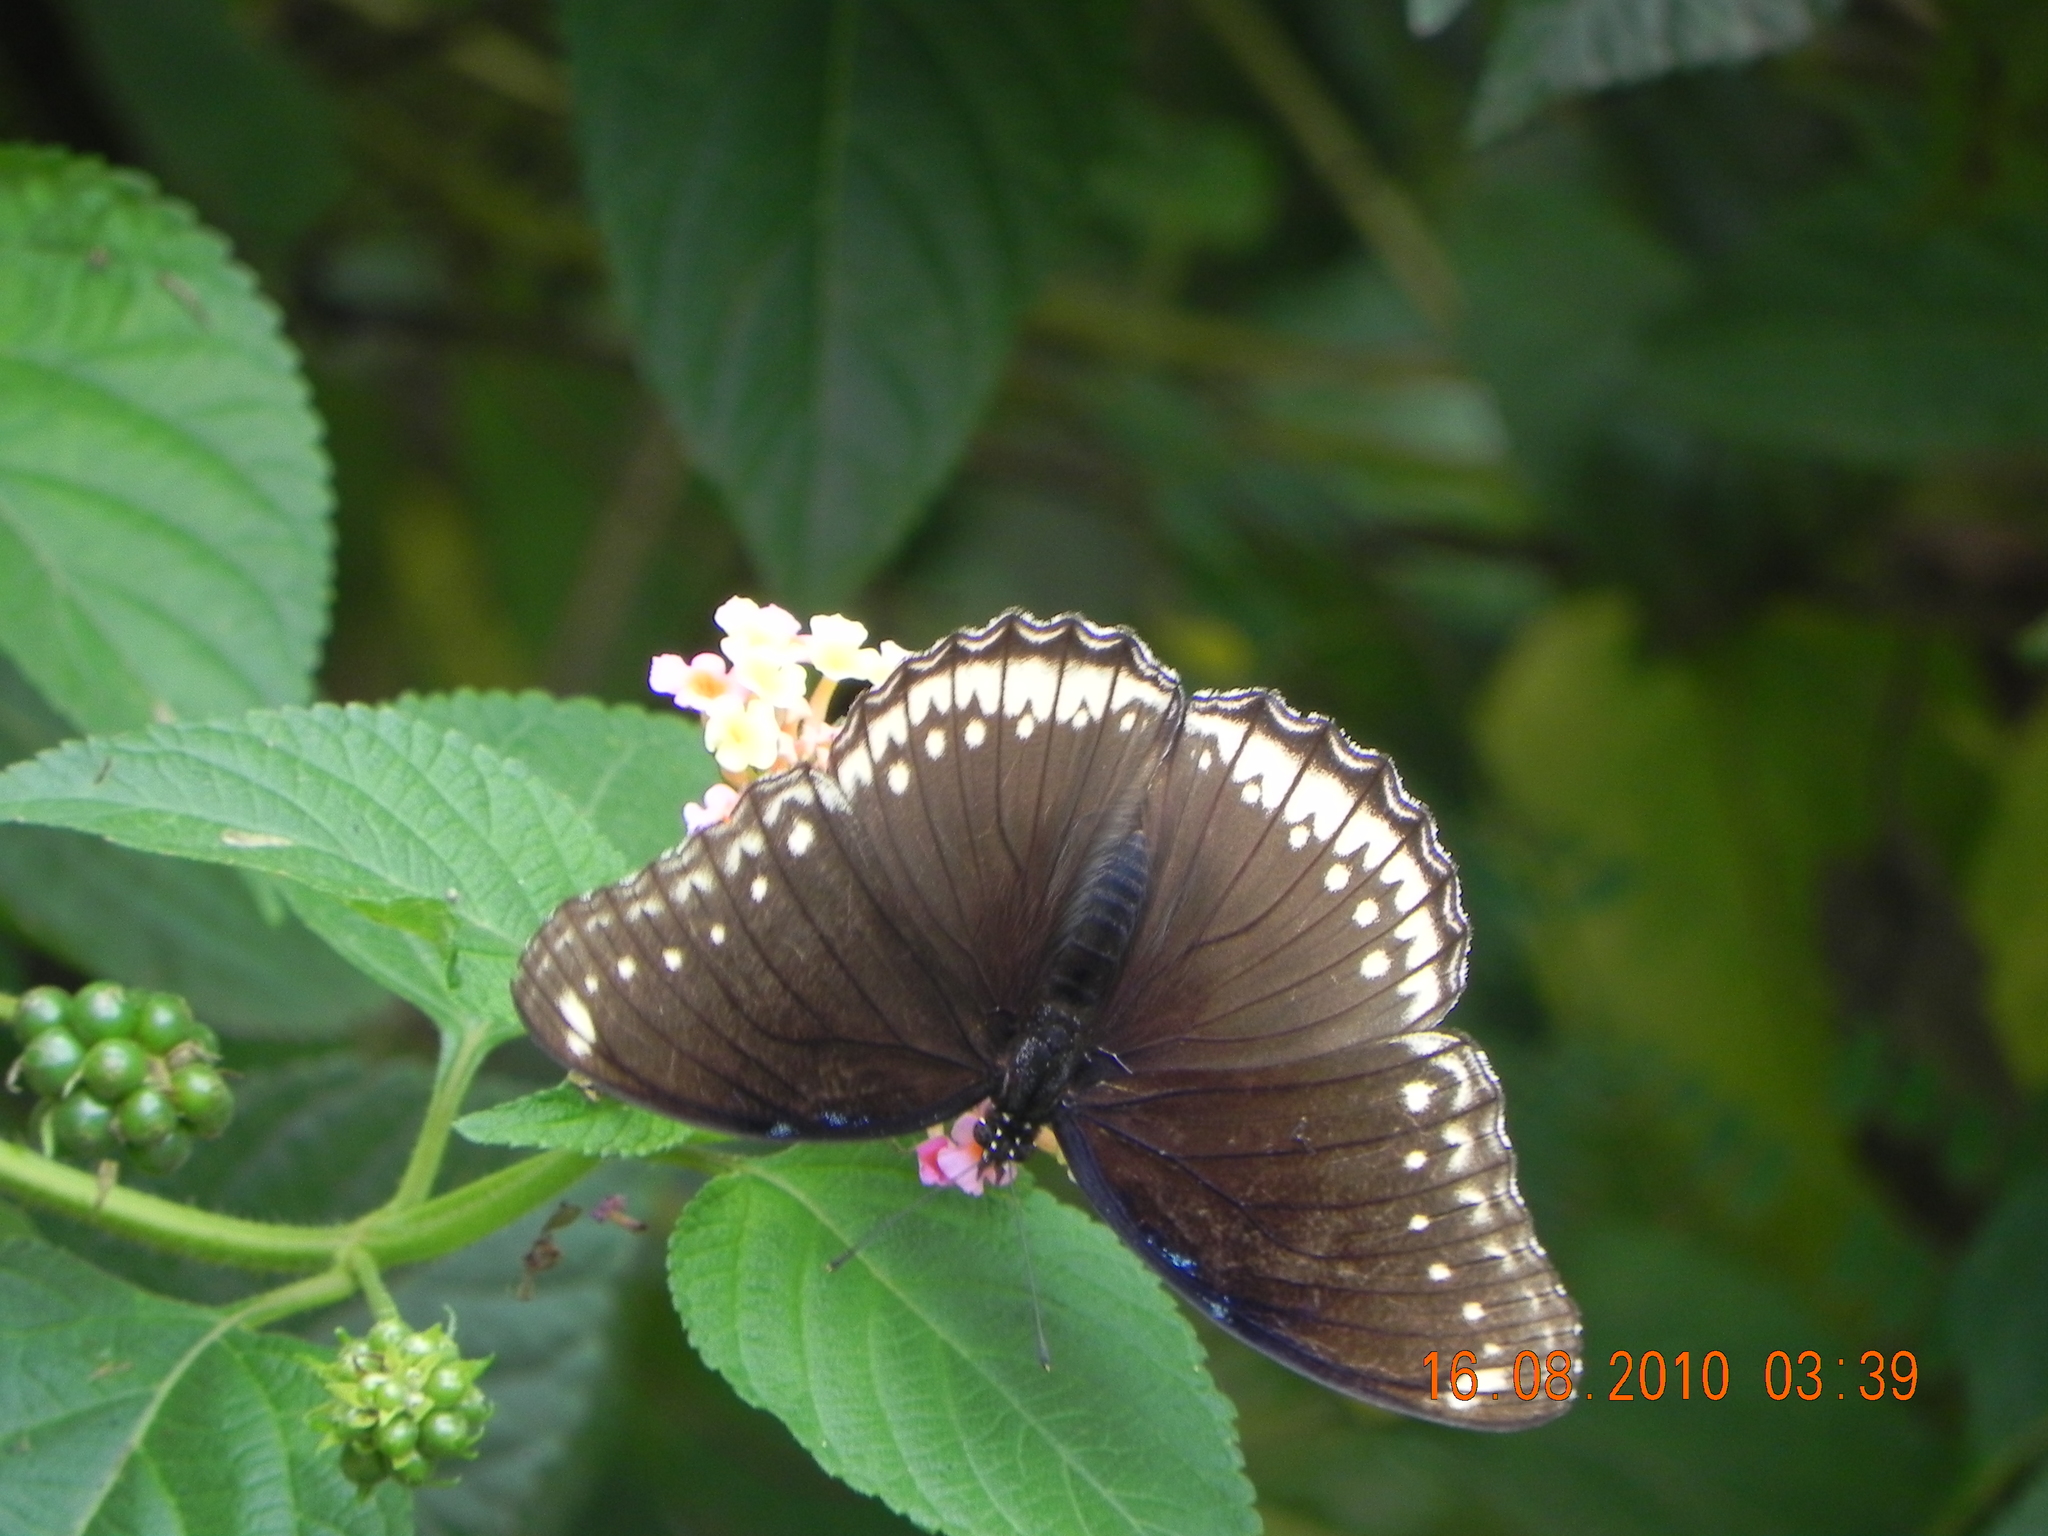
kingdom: Animalia
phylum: Arthropoda
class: Insecta
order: Lepidoptera
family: Nymphalidae
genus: Hypolimnas
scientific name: Hypolimnas bolina
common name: Great eggfly
